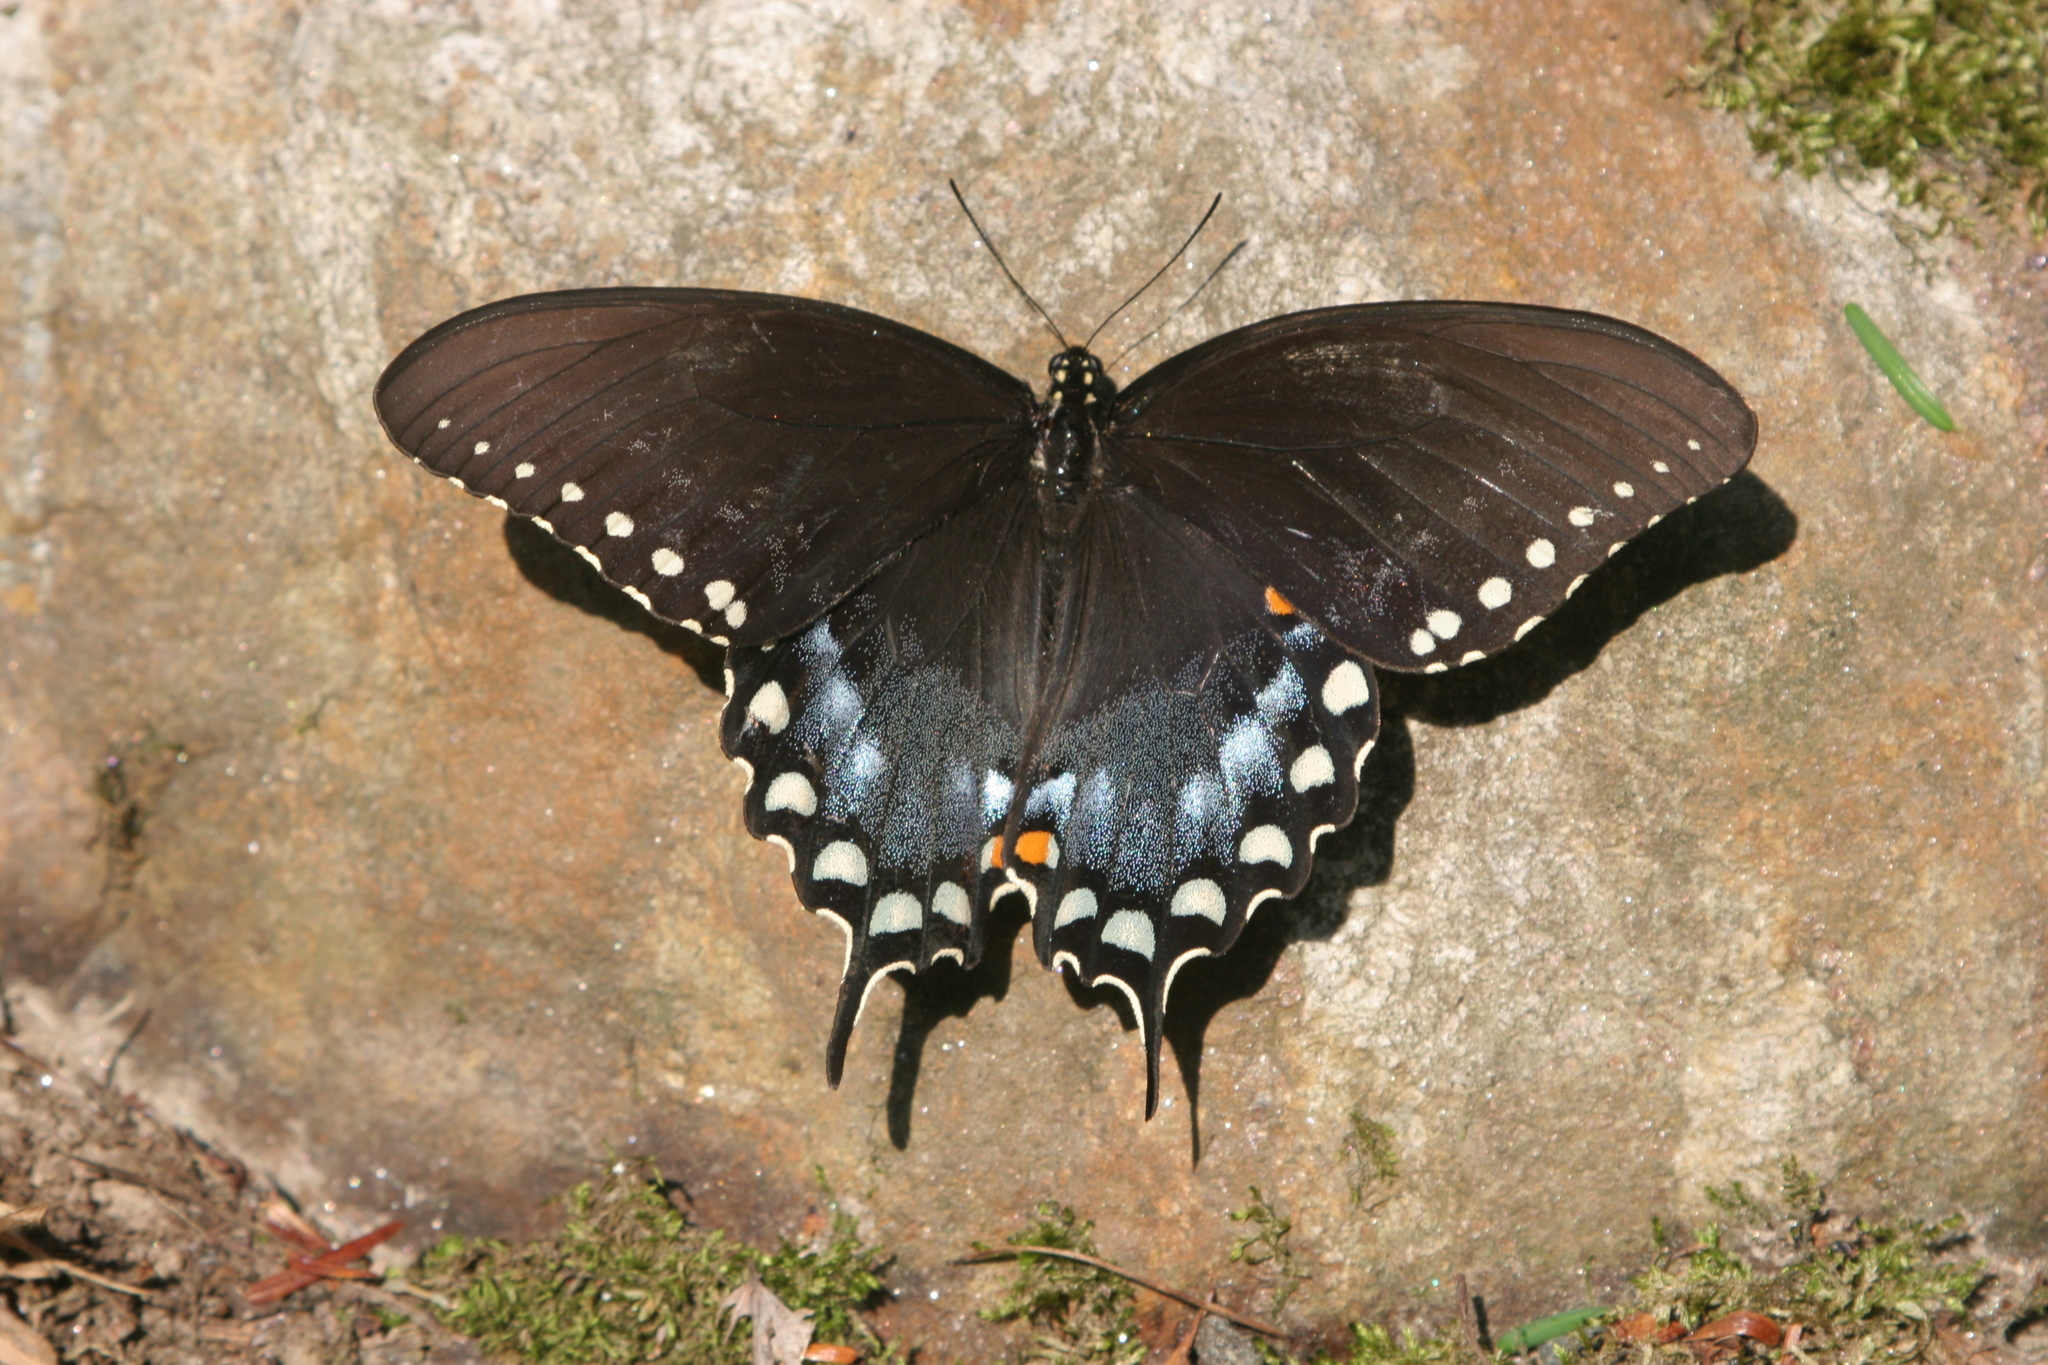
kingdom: Animalia
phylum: Arthropoda
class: Insecta
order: Lepidoptera
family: Papilionidae
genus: Papilio
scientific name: Papilio troilus
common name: Spicebush swallowtail
